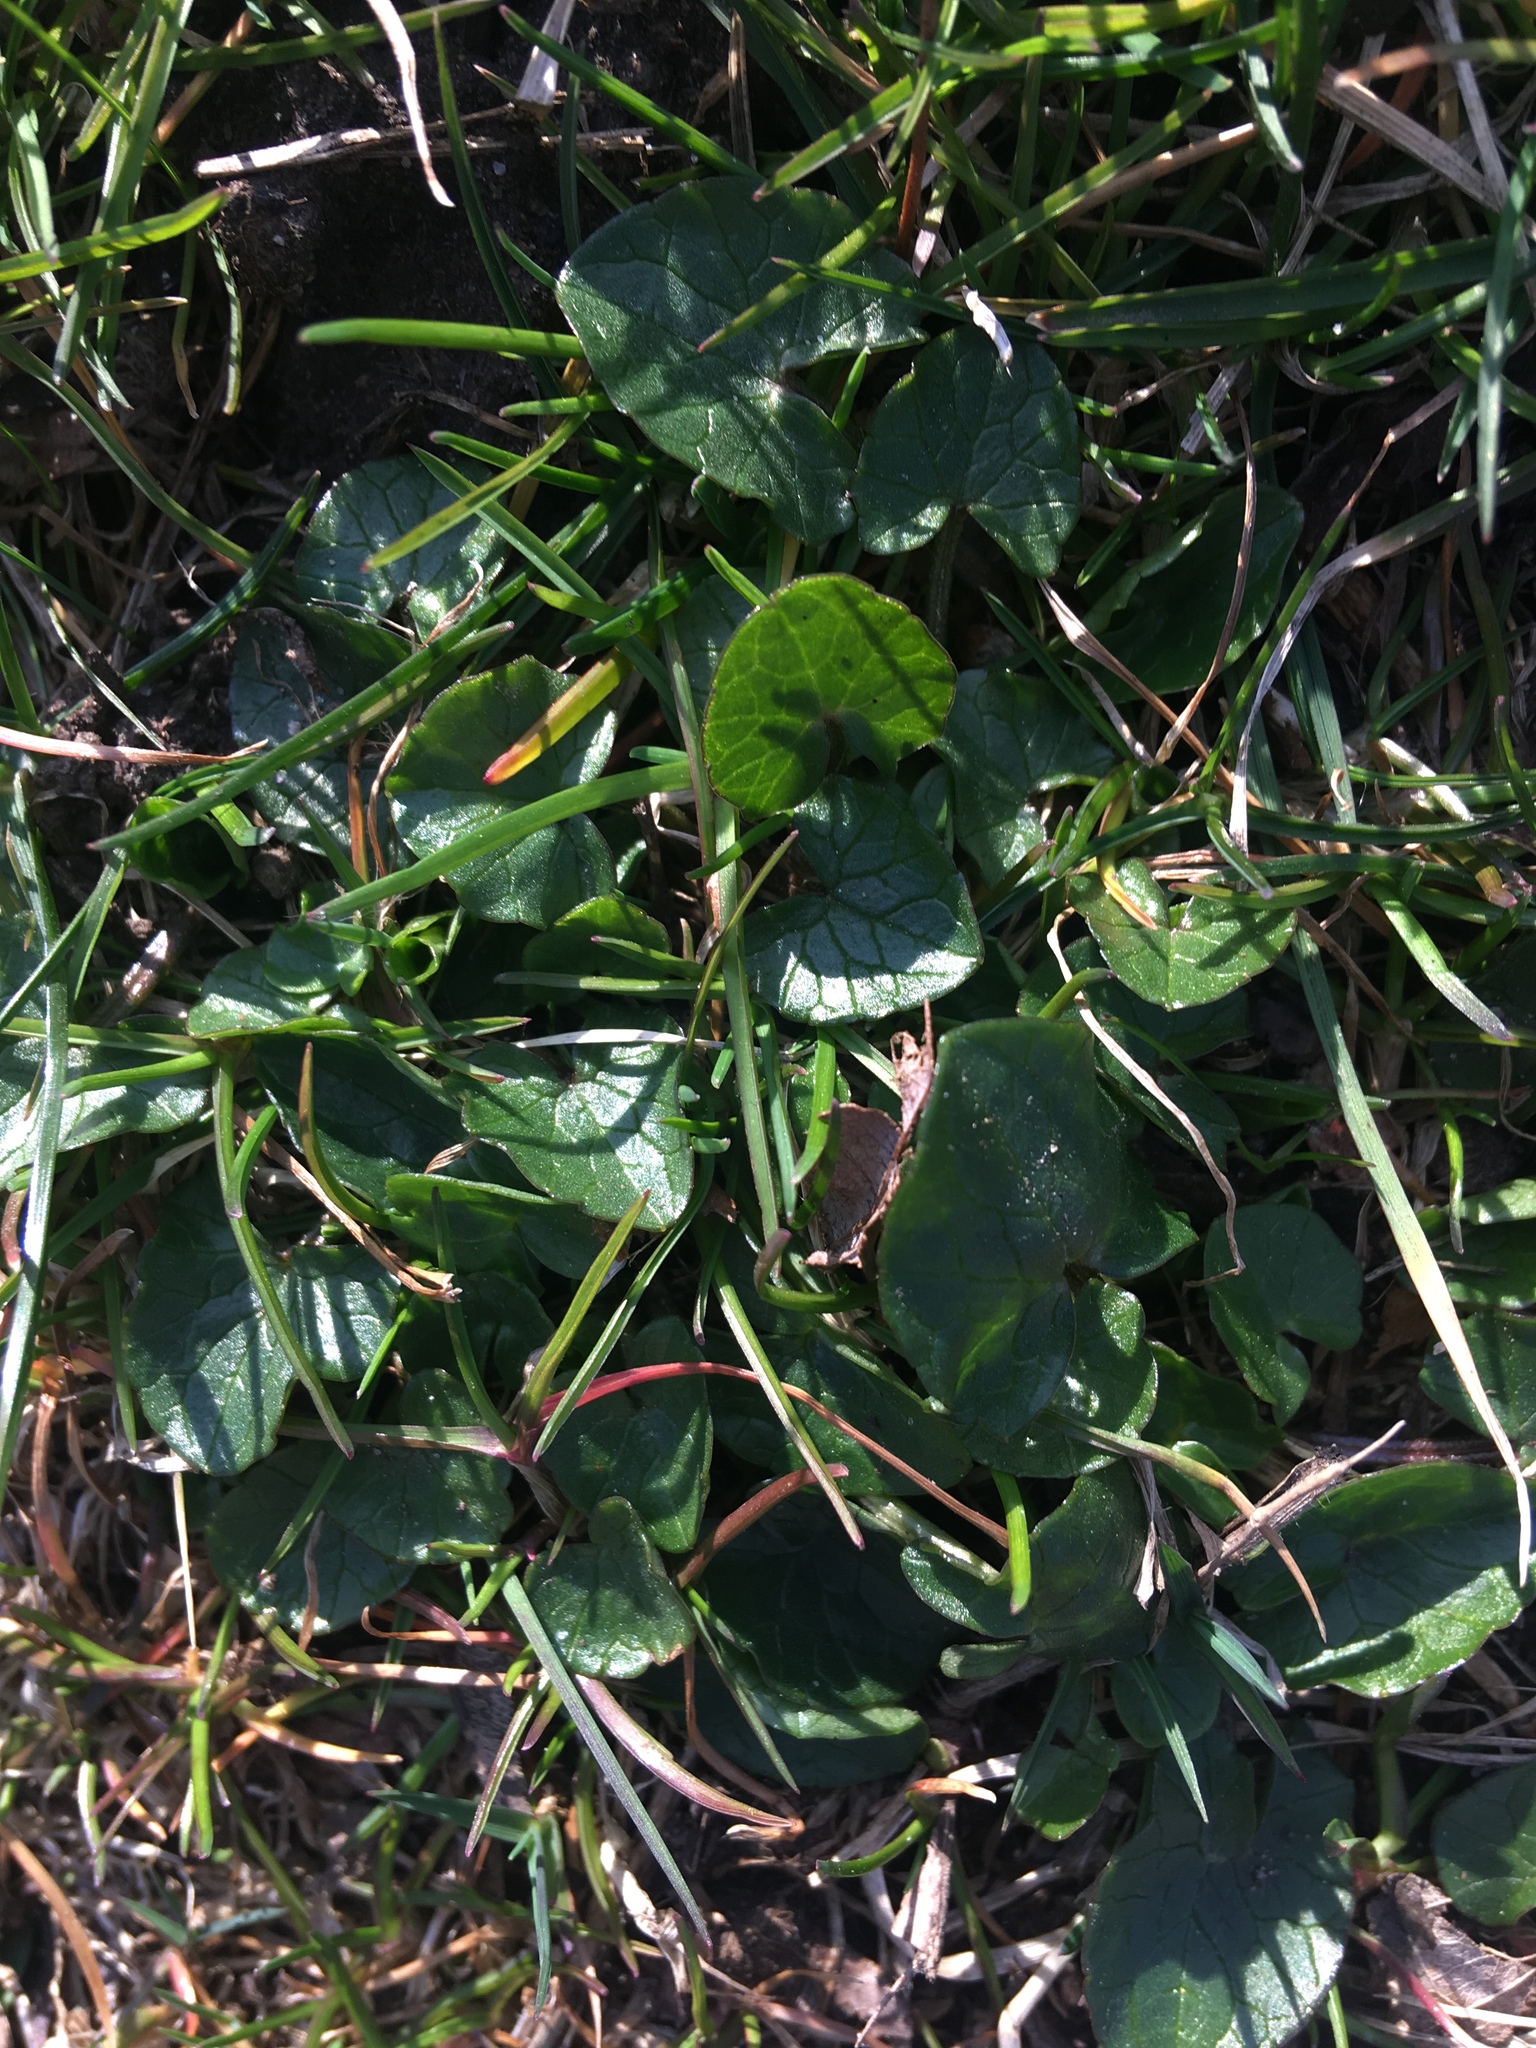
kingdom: Plantae
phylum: Tracheophyta
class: Magnoliopsida
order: Ranunculales
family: Ranunculaceae
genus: Ficaria
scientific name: Ficaria verna
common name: Lesser celandine
